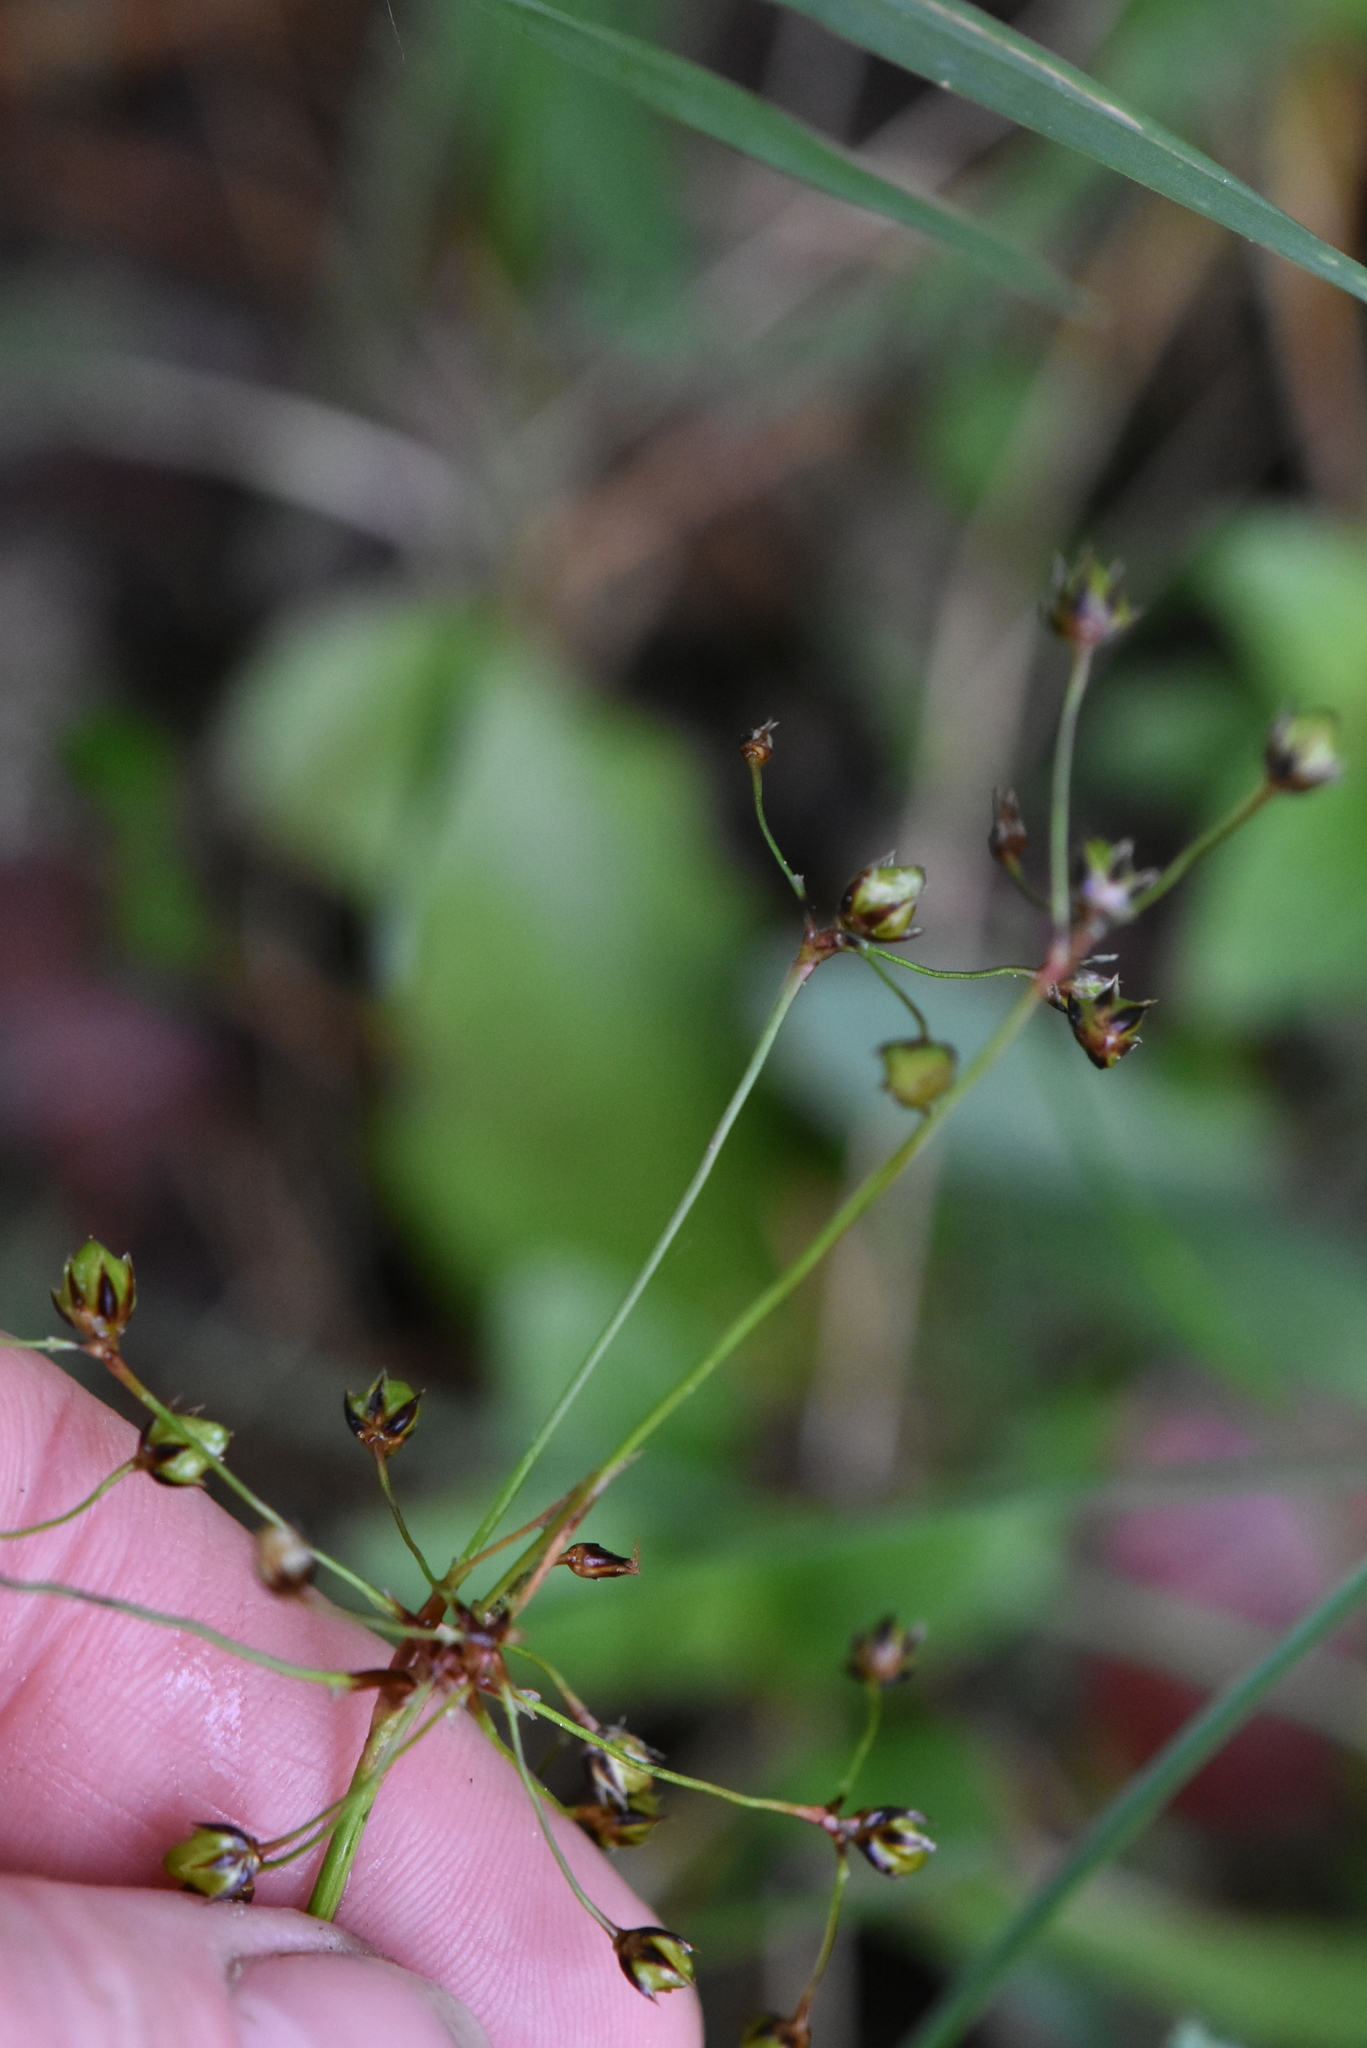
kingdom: Plantae
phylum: Tracheophyta
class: Liliopsida
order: Poales
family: Juncaceae
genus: Luzula
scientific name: Luzula pilosa
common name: Hairy wood-rush
